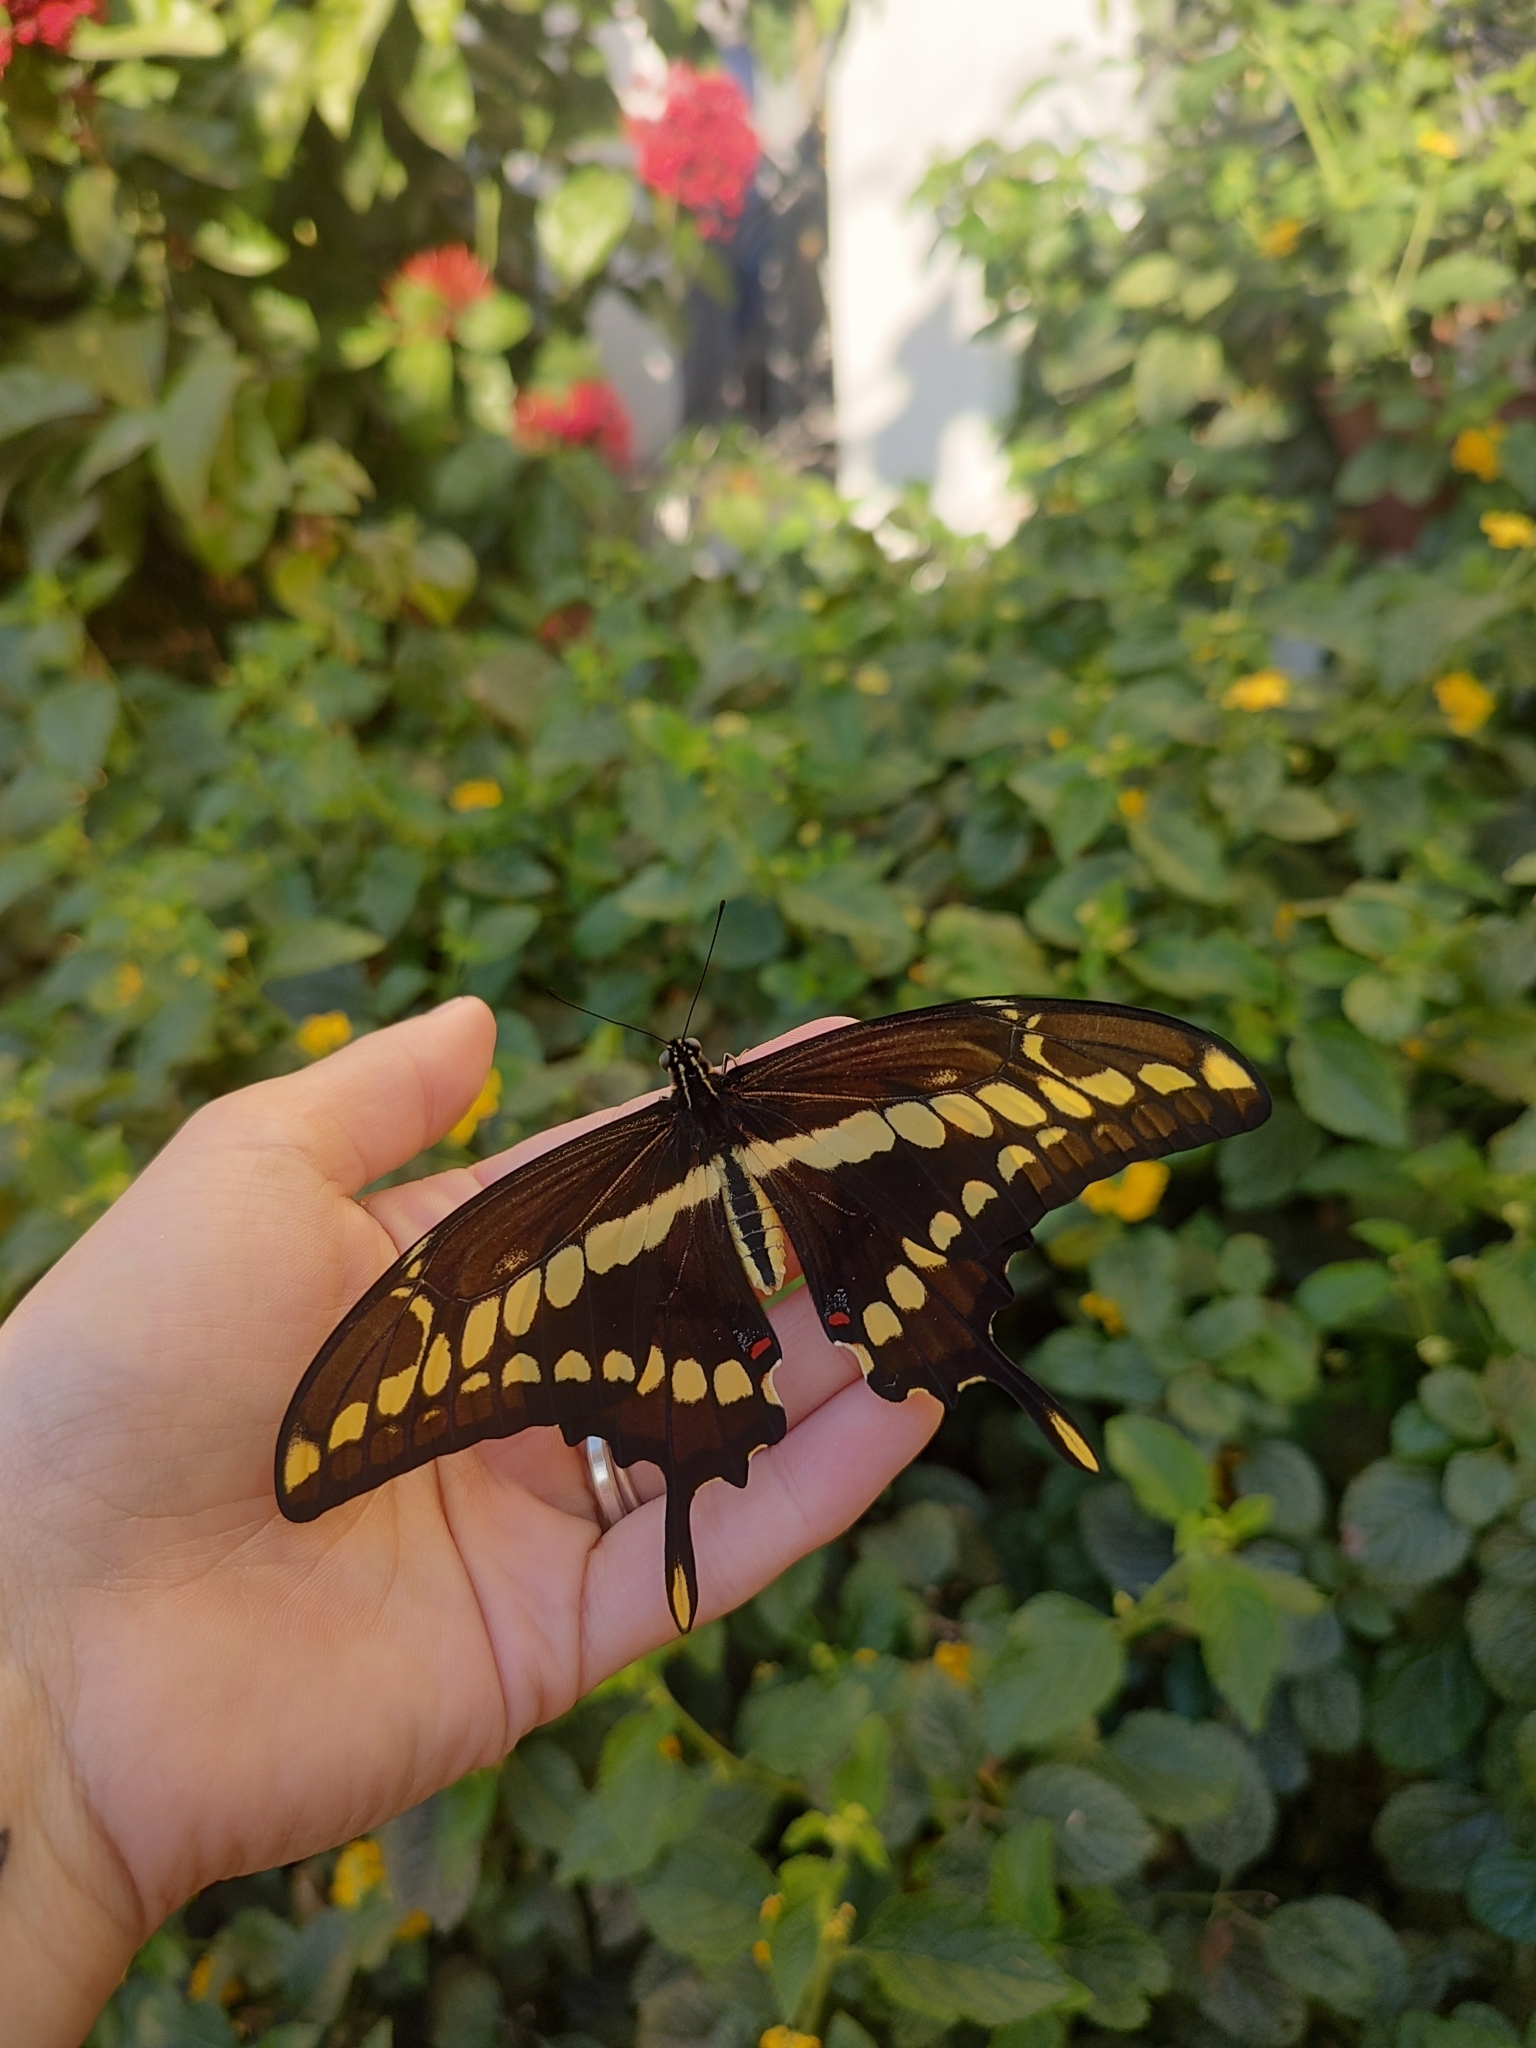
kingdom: Animalia
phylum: Arthropoda
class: Insecta
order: Lepidoptera
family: Papilionidae
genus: Papilio
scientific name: Papilio thoas
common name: King swallowtail
